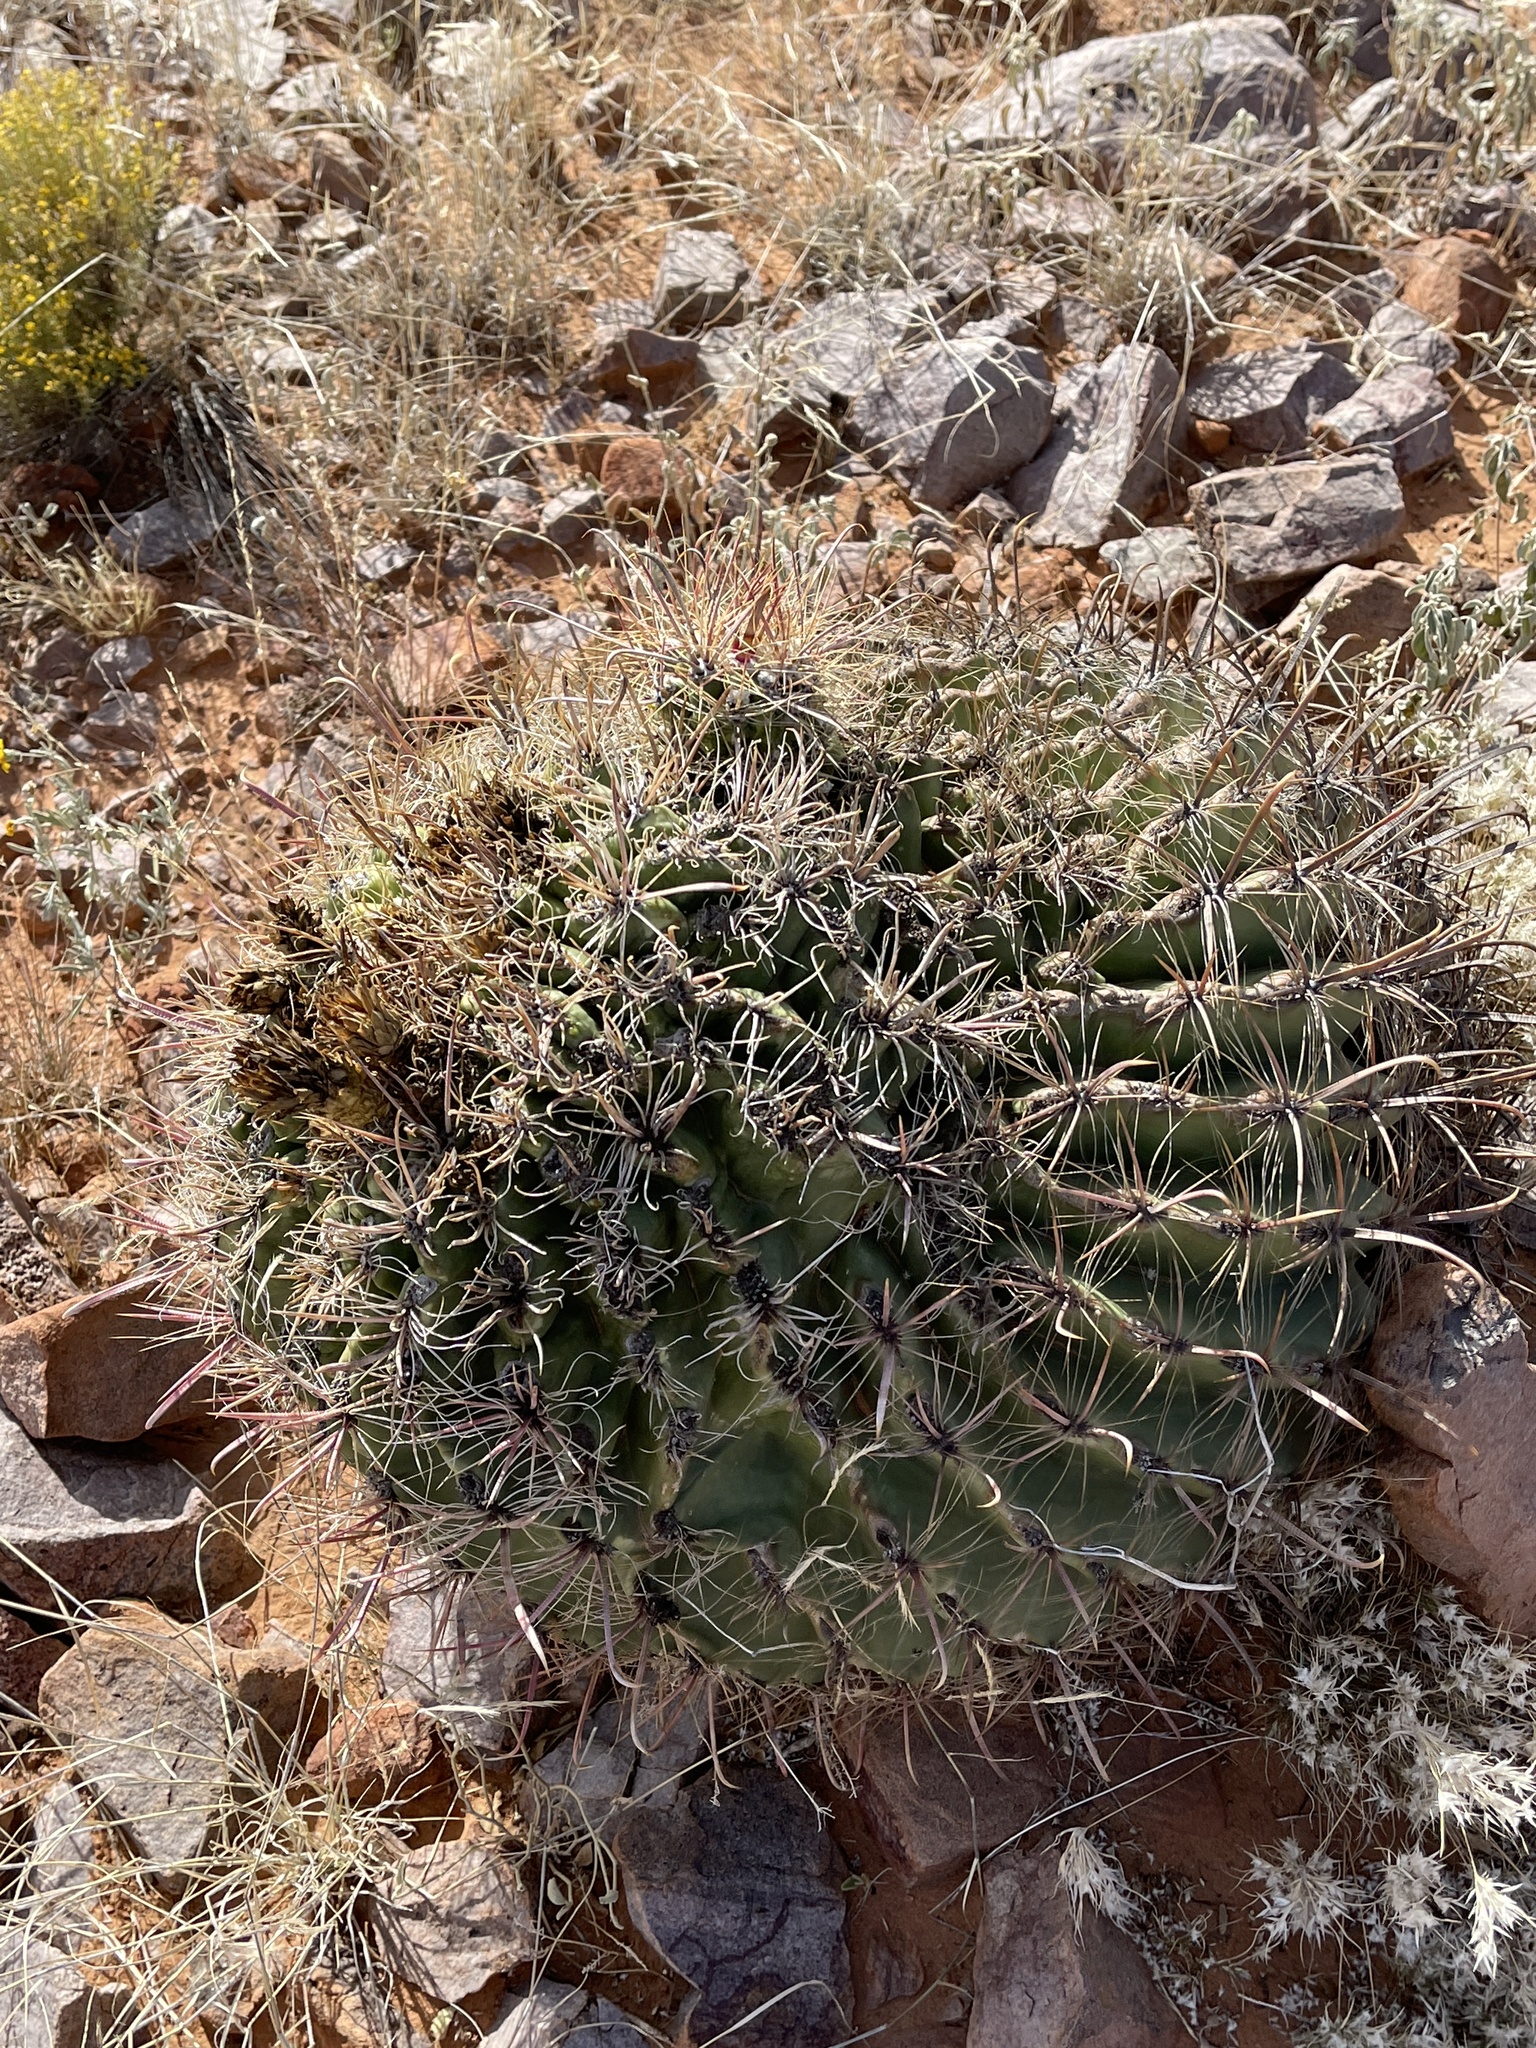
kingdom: Plantae
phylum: Tracheophyta
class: Magnoliopsida
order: Caryophyllales
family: Cactaceae
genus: Ferocactus
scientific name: Ferocactus wislizeni
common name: Candy barrel cactus
